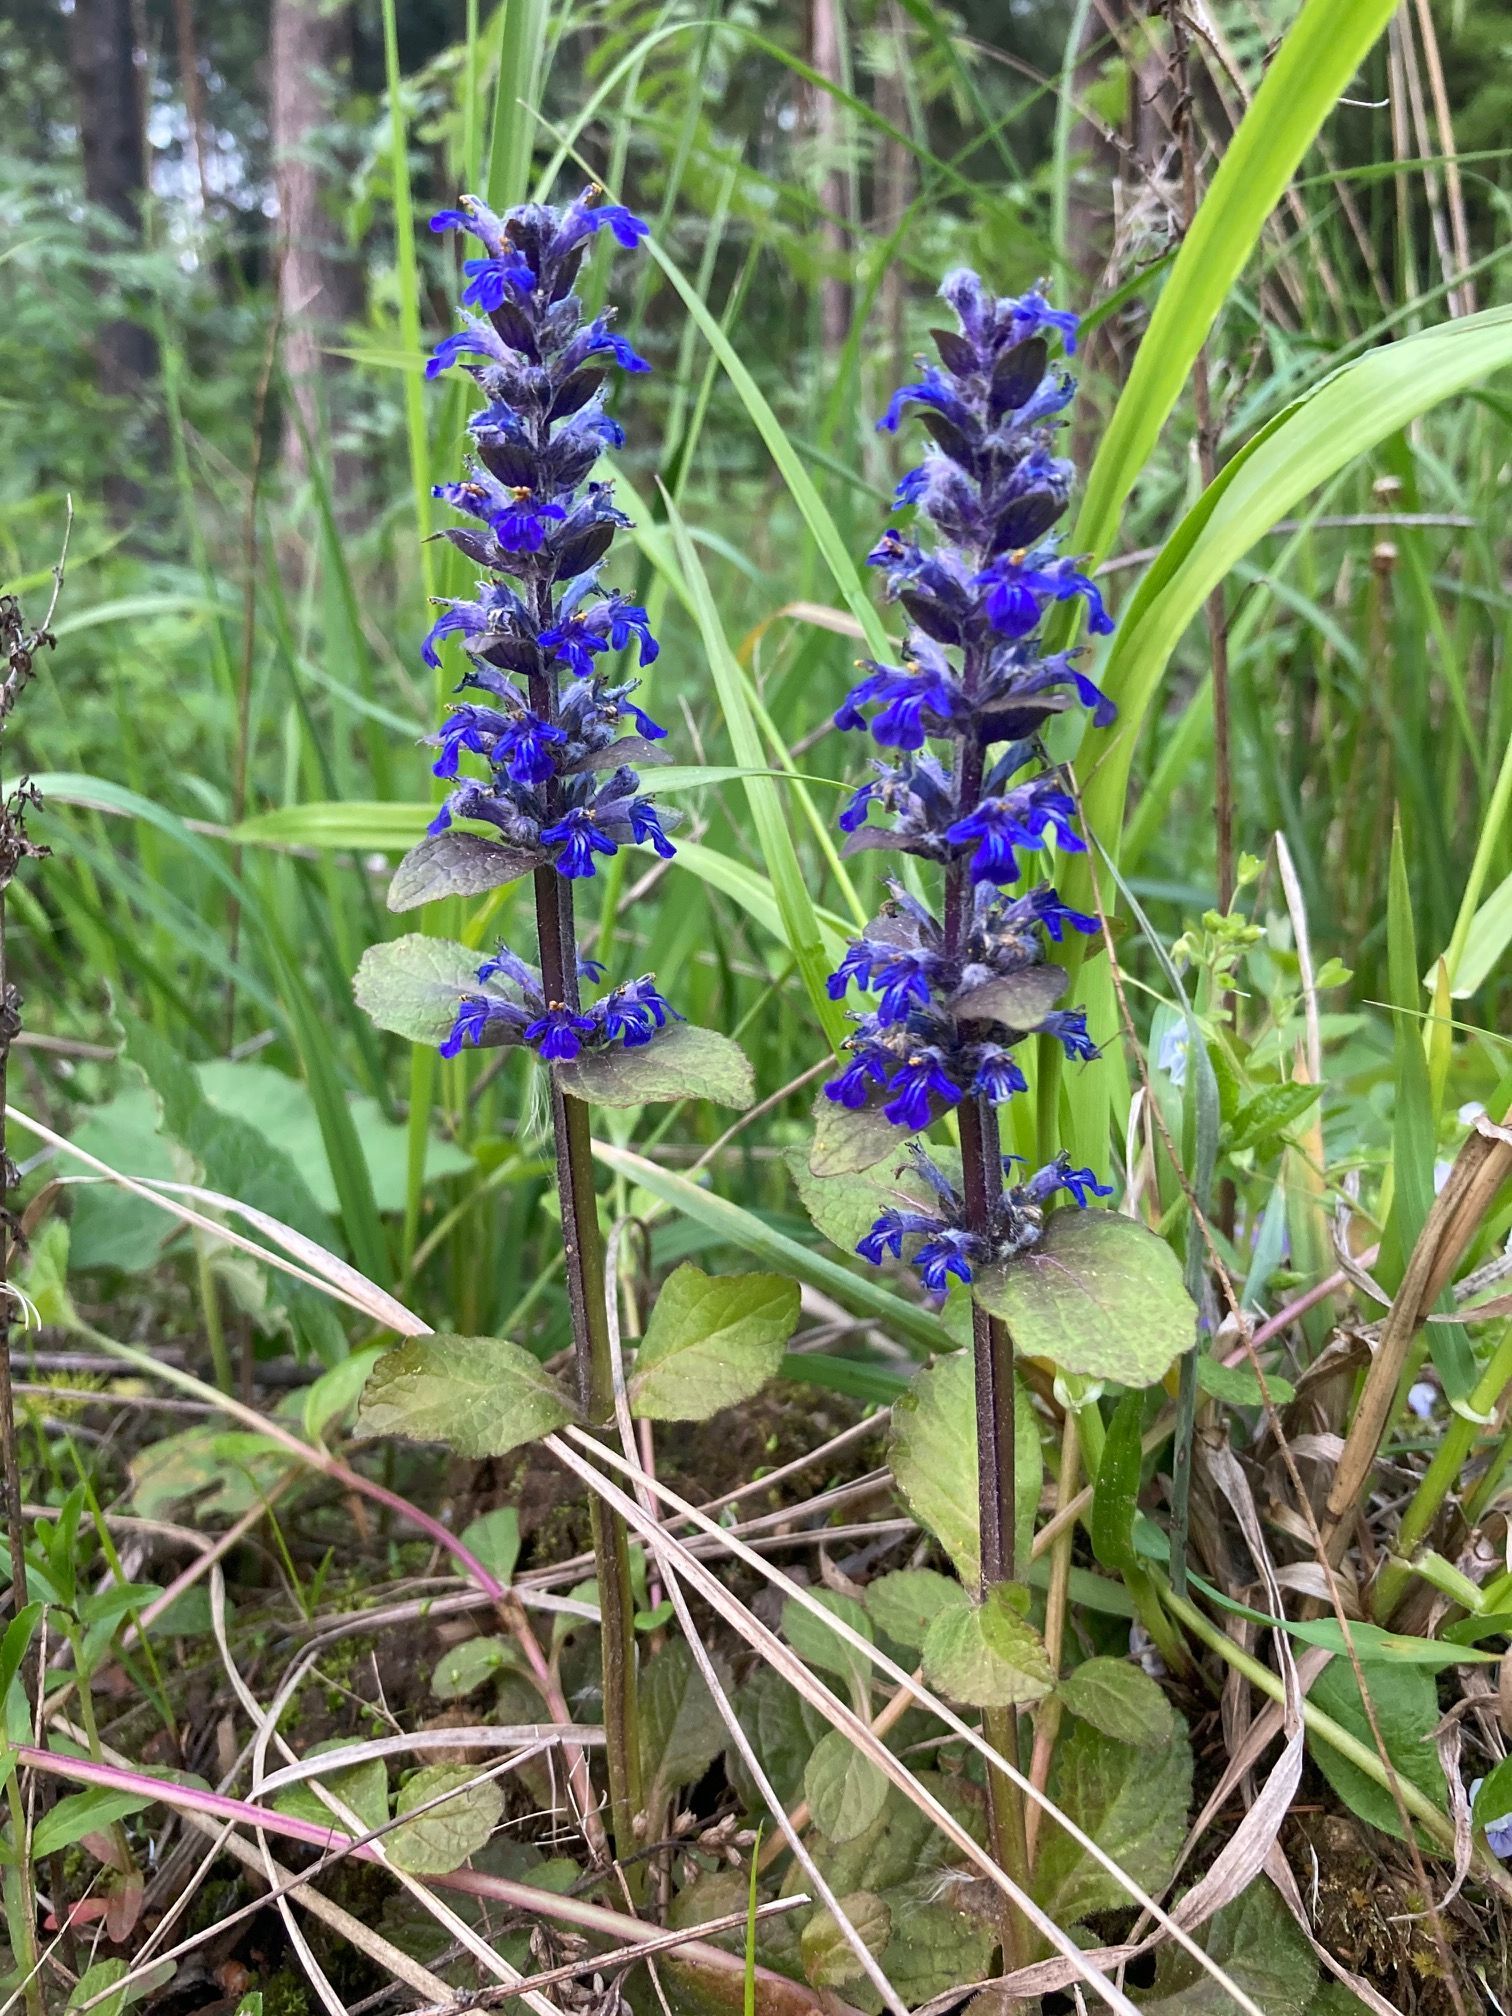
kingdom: Plantae
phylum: Tracheophyta
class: Magnoliopsida
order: Lamiales
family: Lamiaceae
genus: Ajuga
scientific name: Ajuga reptans
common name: Bugle
